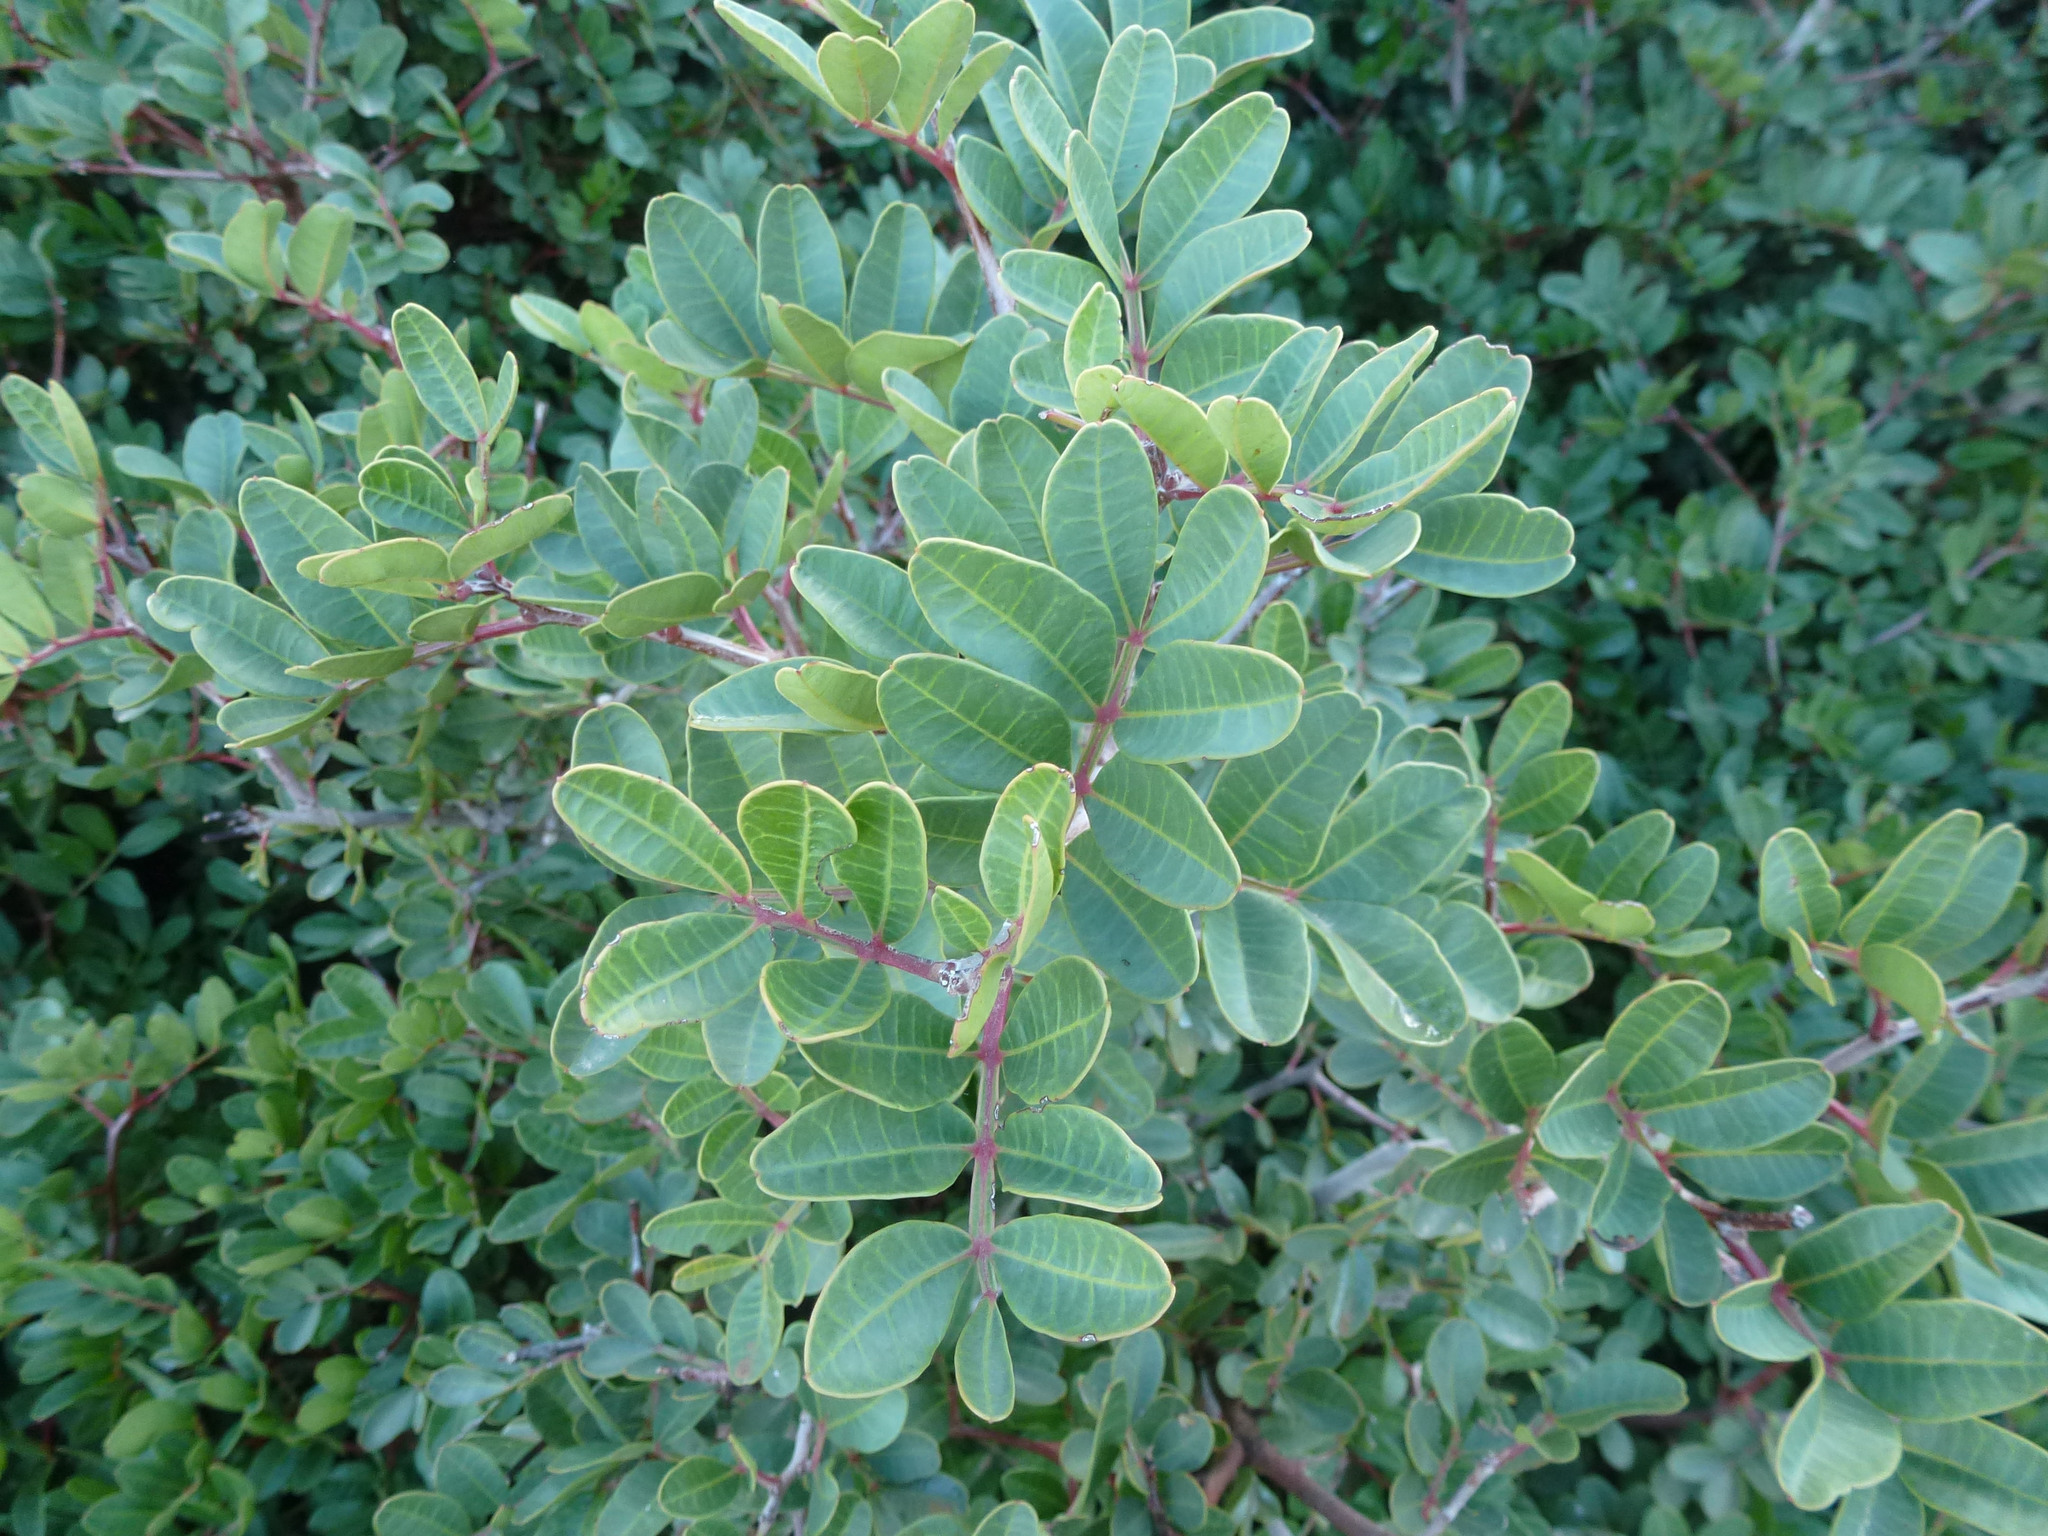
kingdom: Plantae
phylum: Tracheophyta
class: Magnoliopsida
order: Sapindales
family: Anacardiaceae
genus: Pistacia
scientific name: Pistacia lentiscus
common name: Lentisk
